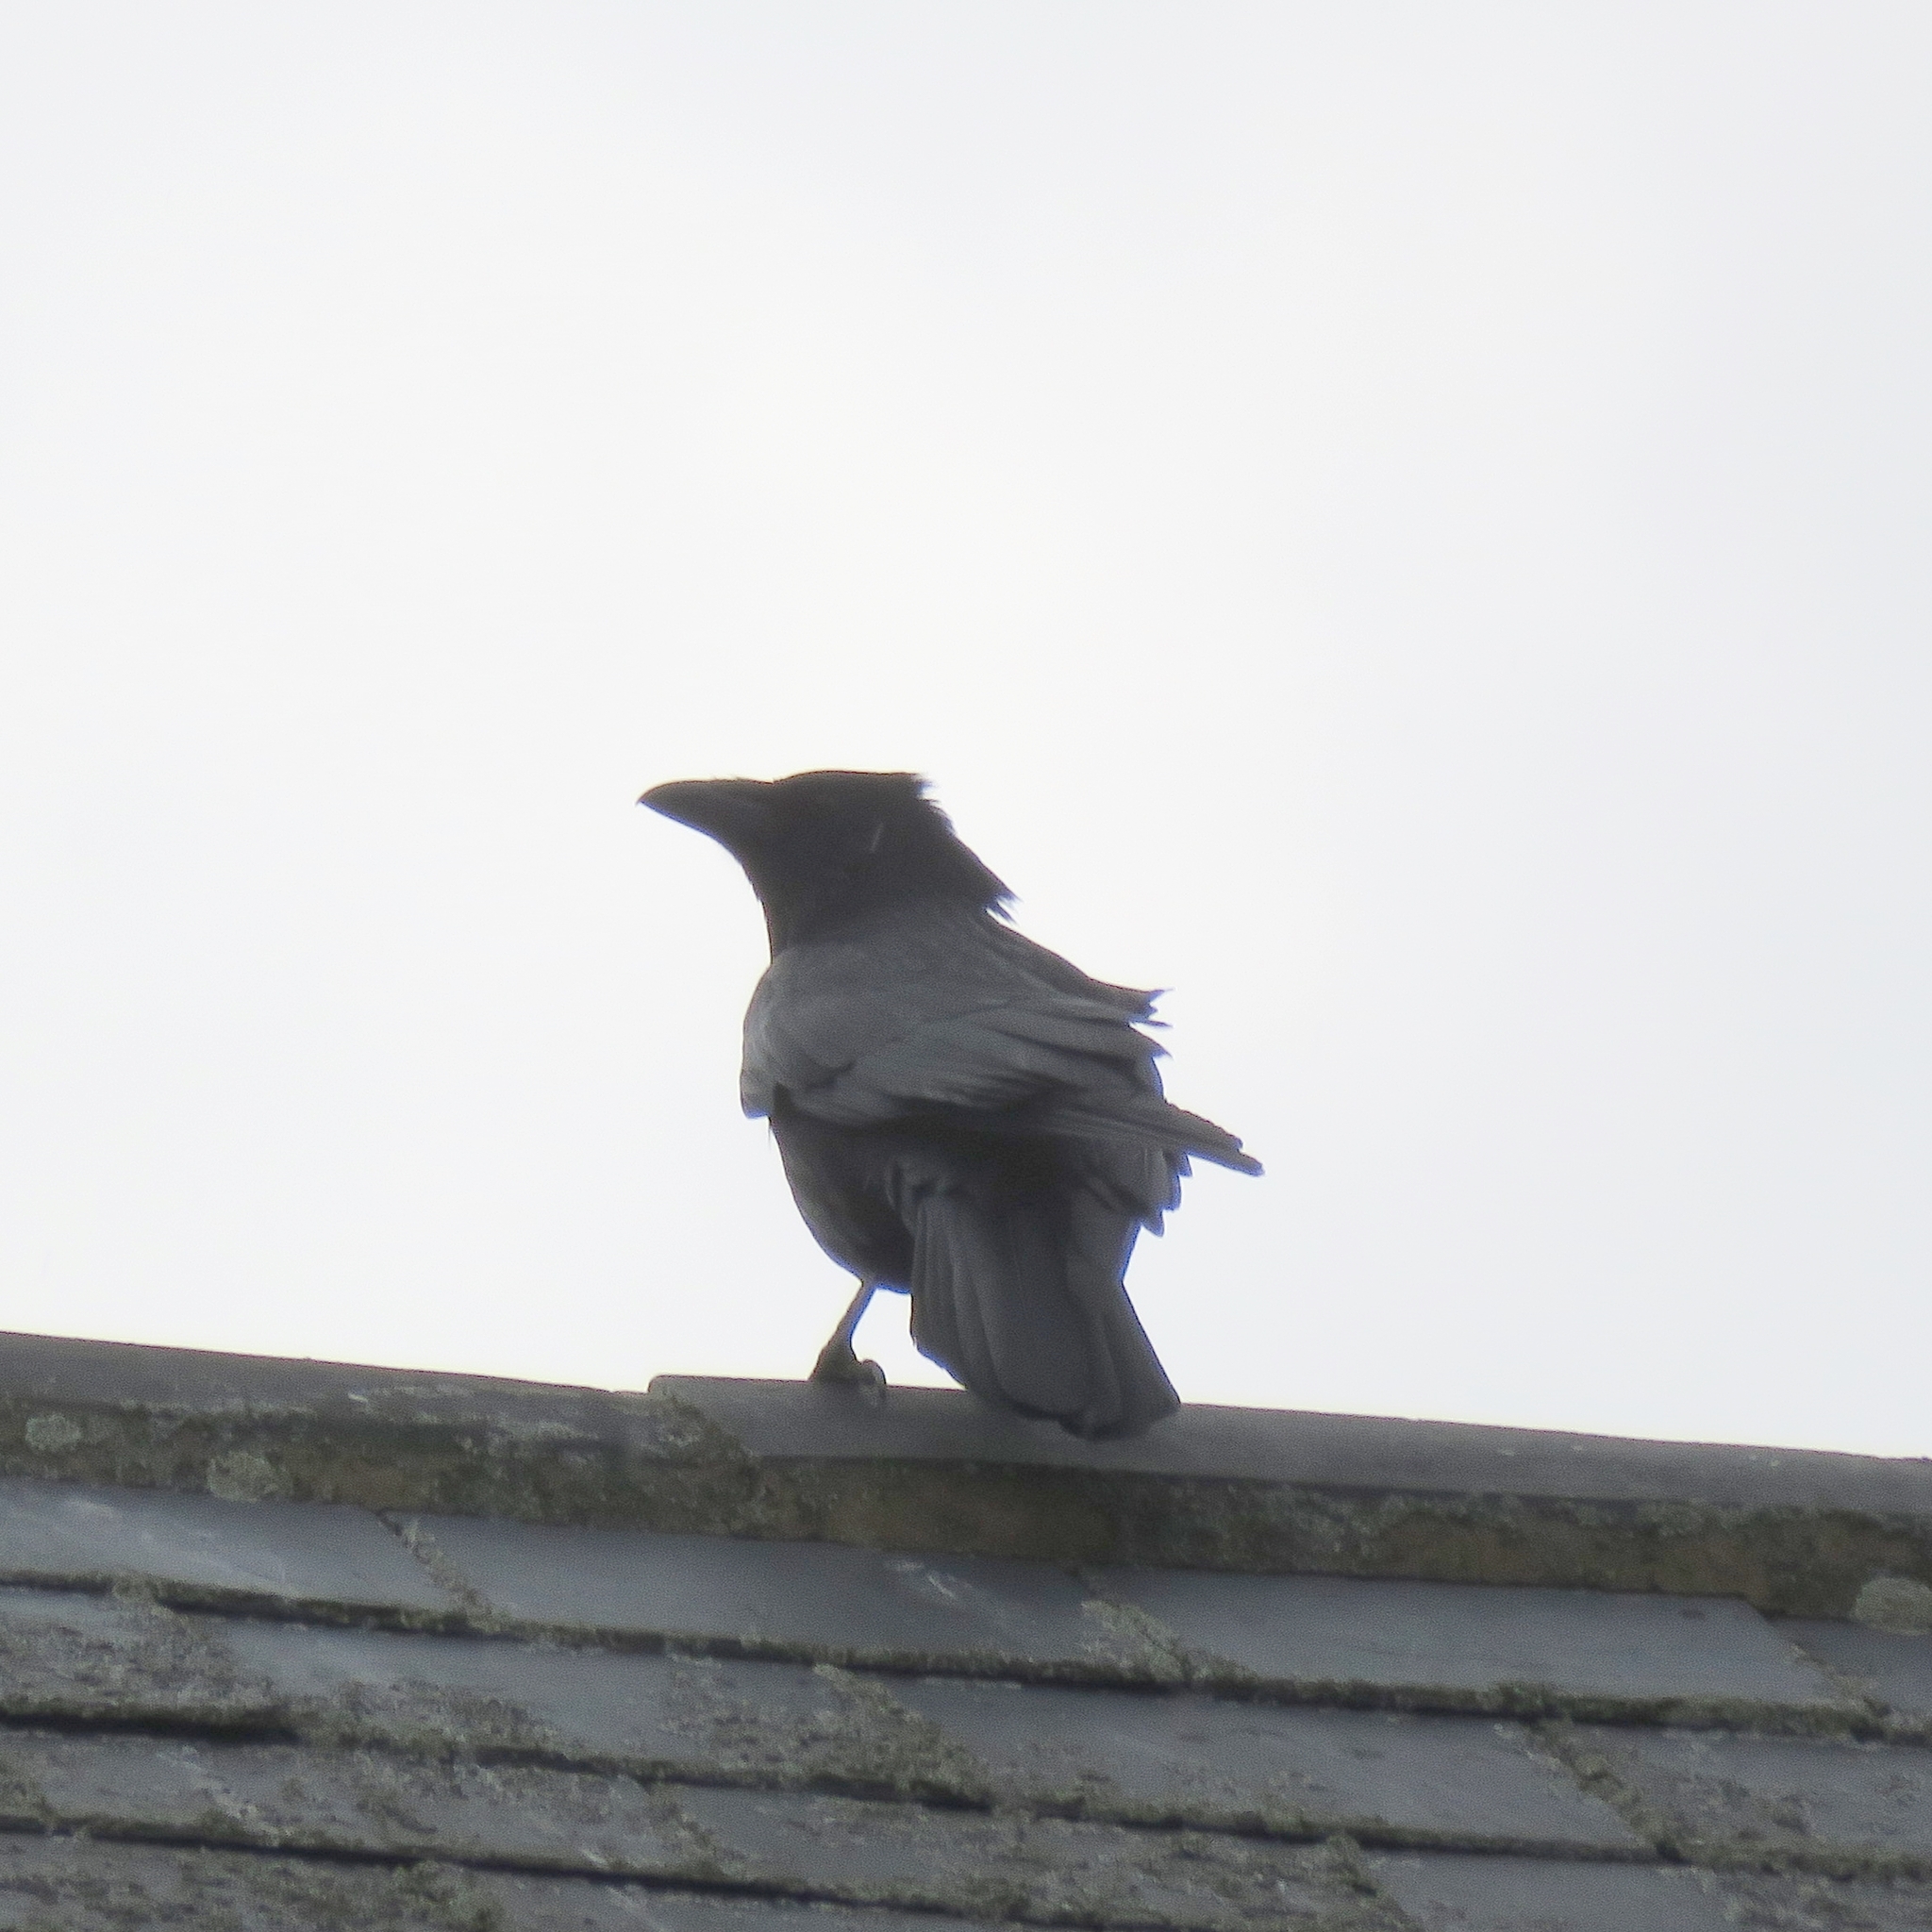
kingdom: Animalia
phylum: Chordata
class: Aves
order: Passeriformes
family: Corvidae
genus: Corvus
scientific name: Corvus corone
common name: Carrion crow
